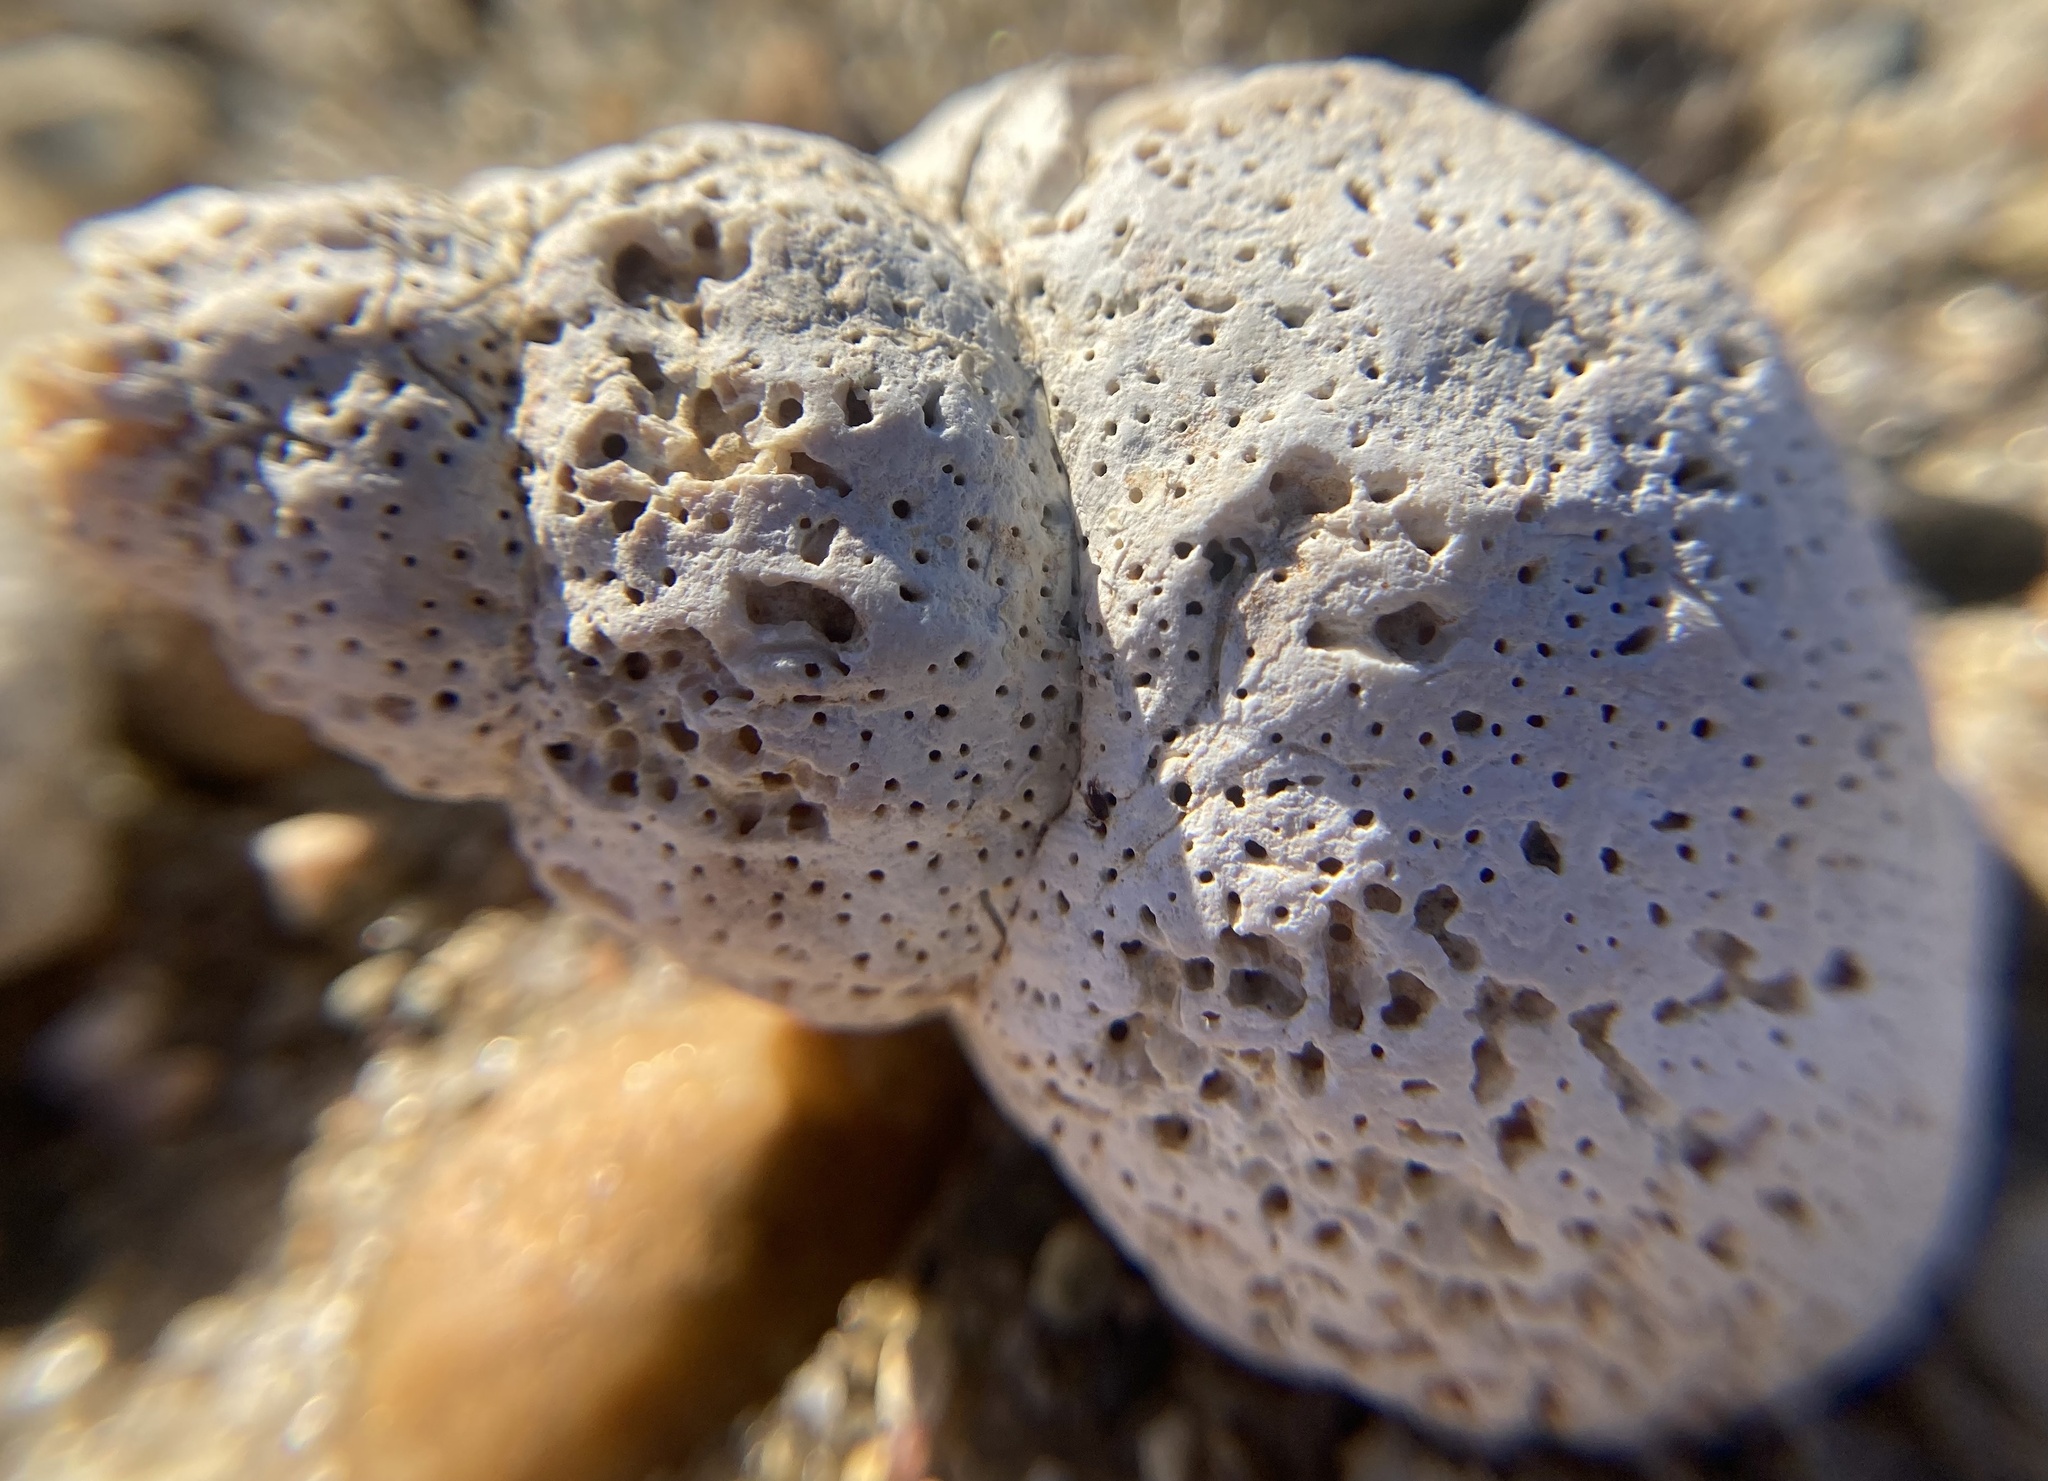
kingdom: Animalia
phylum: Mollusca
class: Gastropoda
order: Neogastropoda
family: Buccinidae
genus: Buccinum
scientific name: Buccinum undatum
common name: Common whelk
